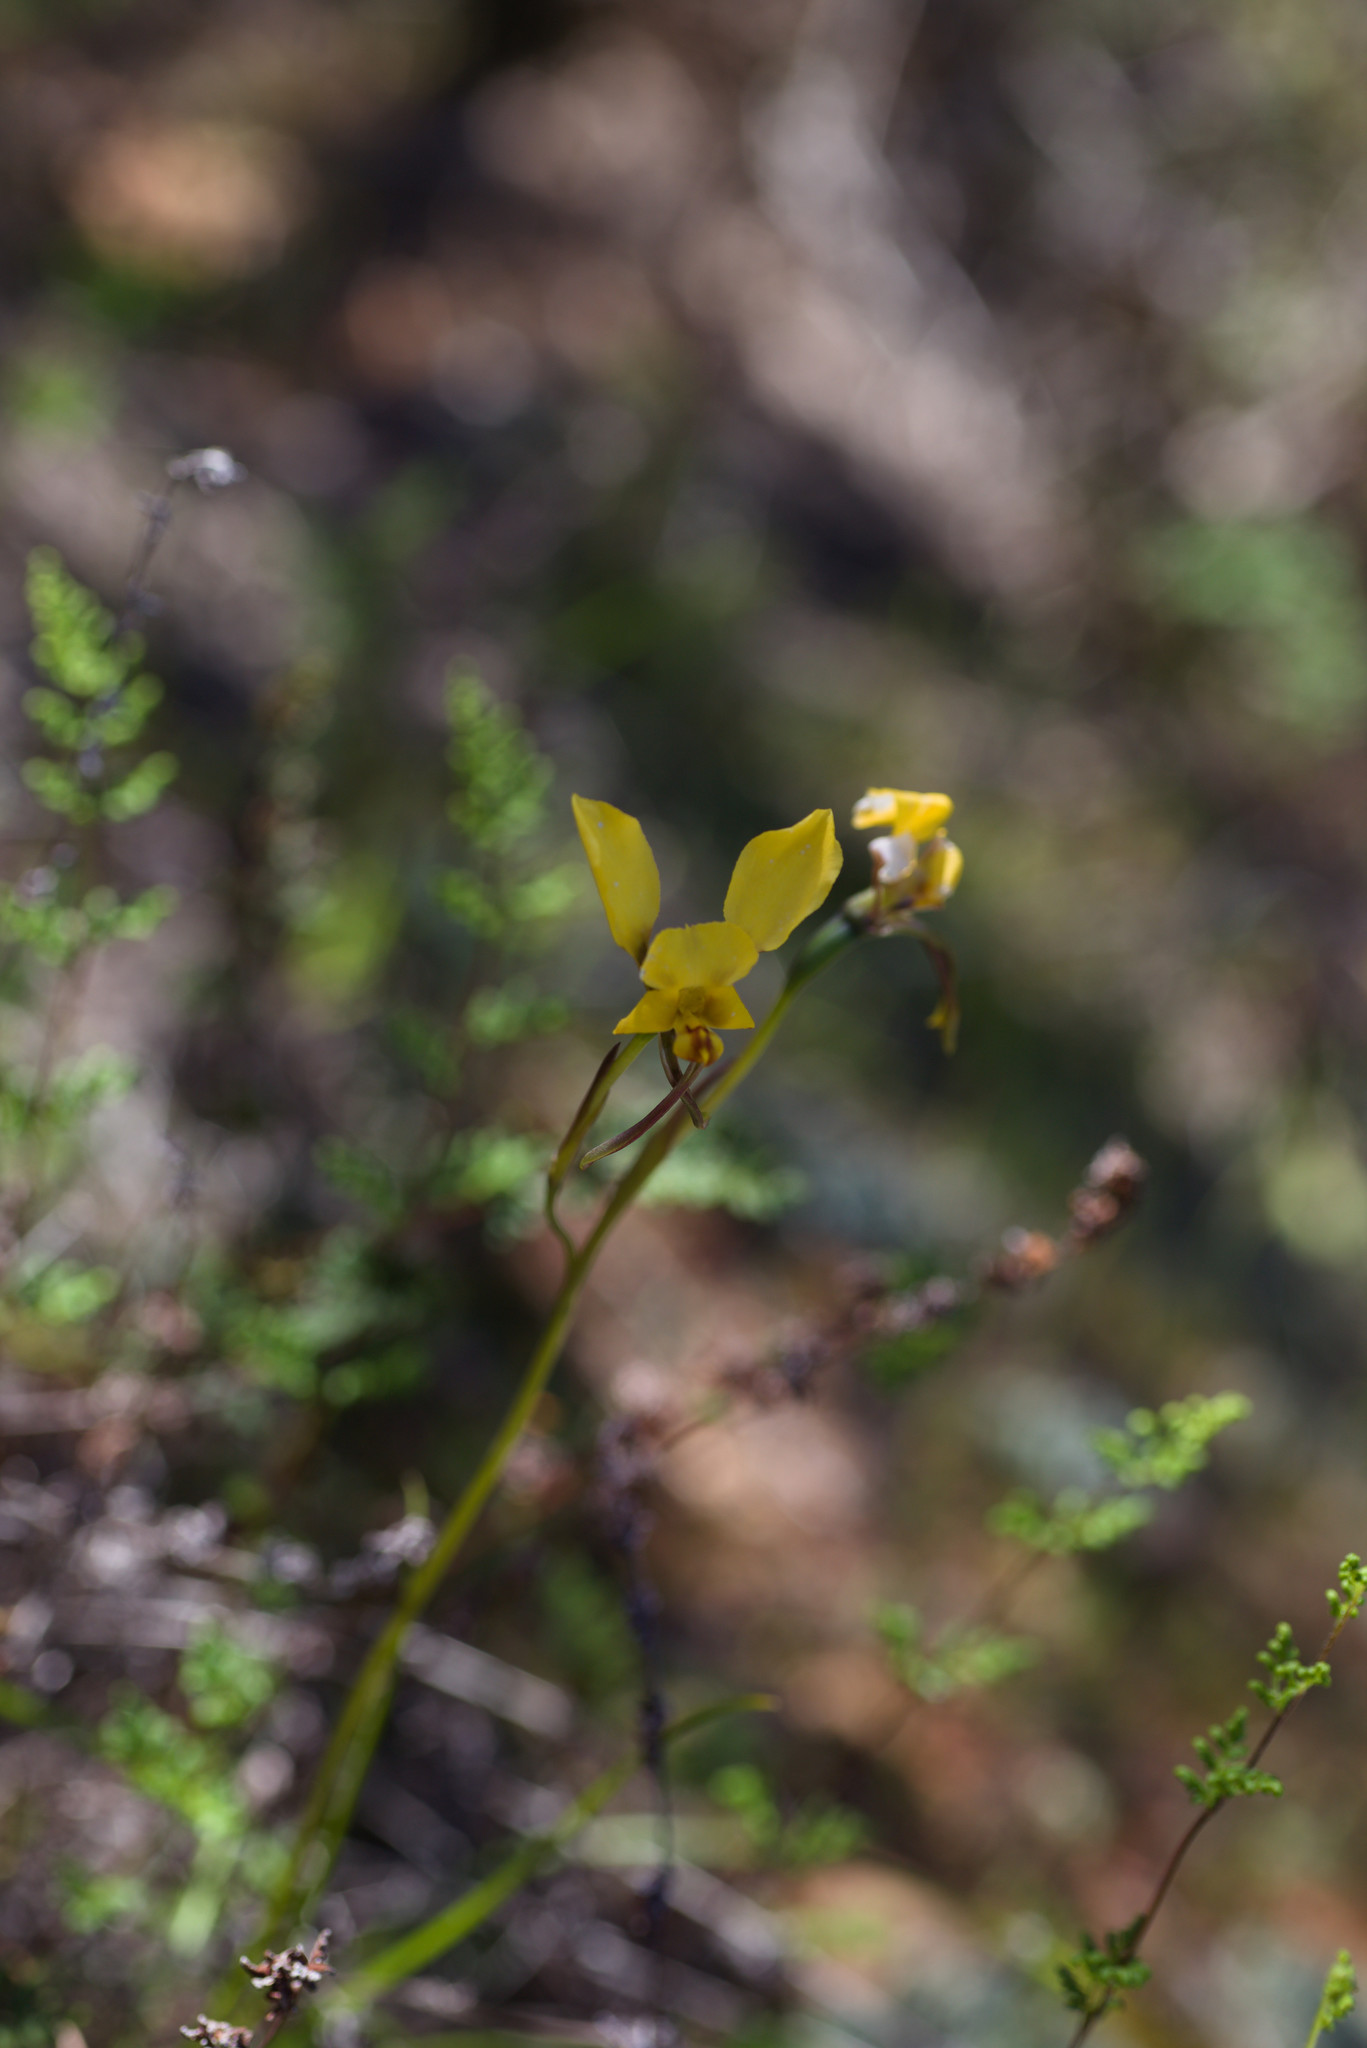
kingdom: Plantae
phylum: Tracheophyta
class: Liliopsida
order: Asparagales
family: Orchidaceae
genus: Diuris
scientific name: Diuris hazeliae
